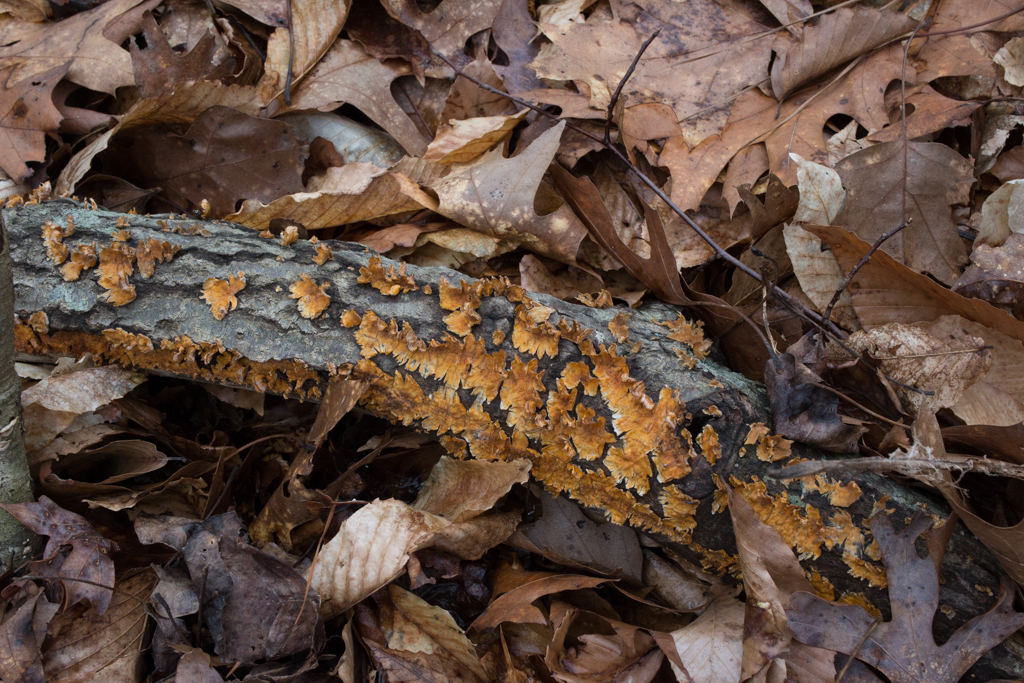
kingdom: Fungi
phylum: Basidiomycota
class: Agaricomycetes
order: Russulales
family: Stereaceae
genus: Stereum
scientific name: Stereum complicatum
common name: Crowded parchment
